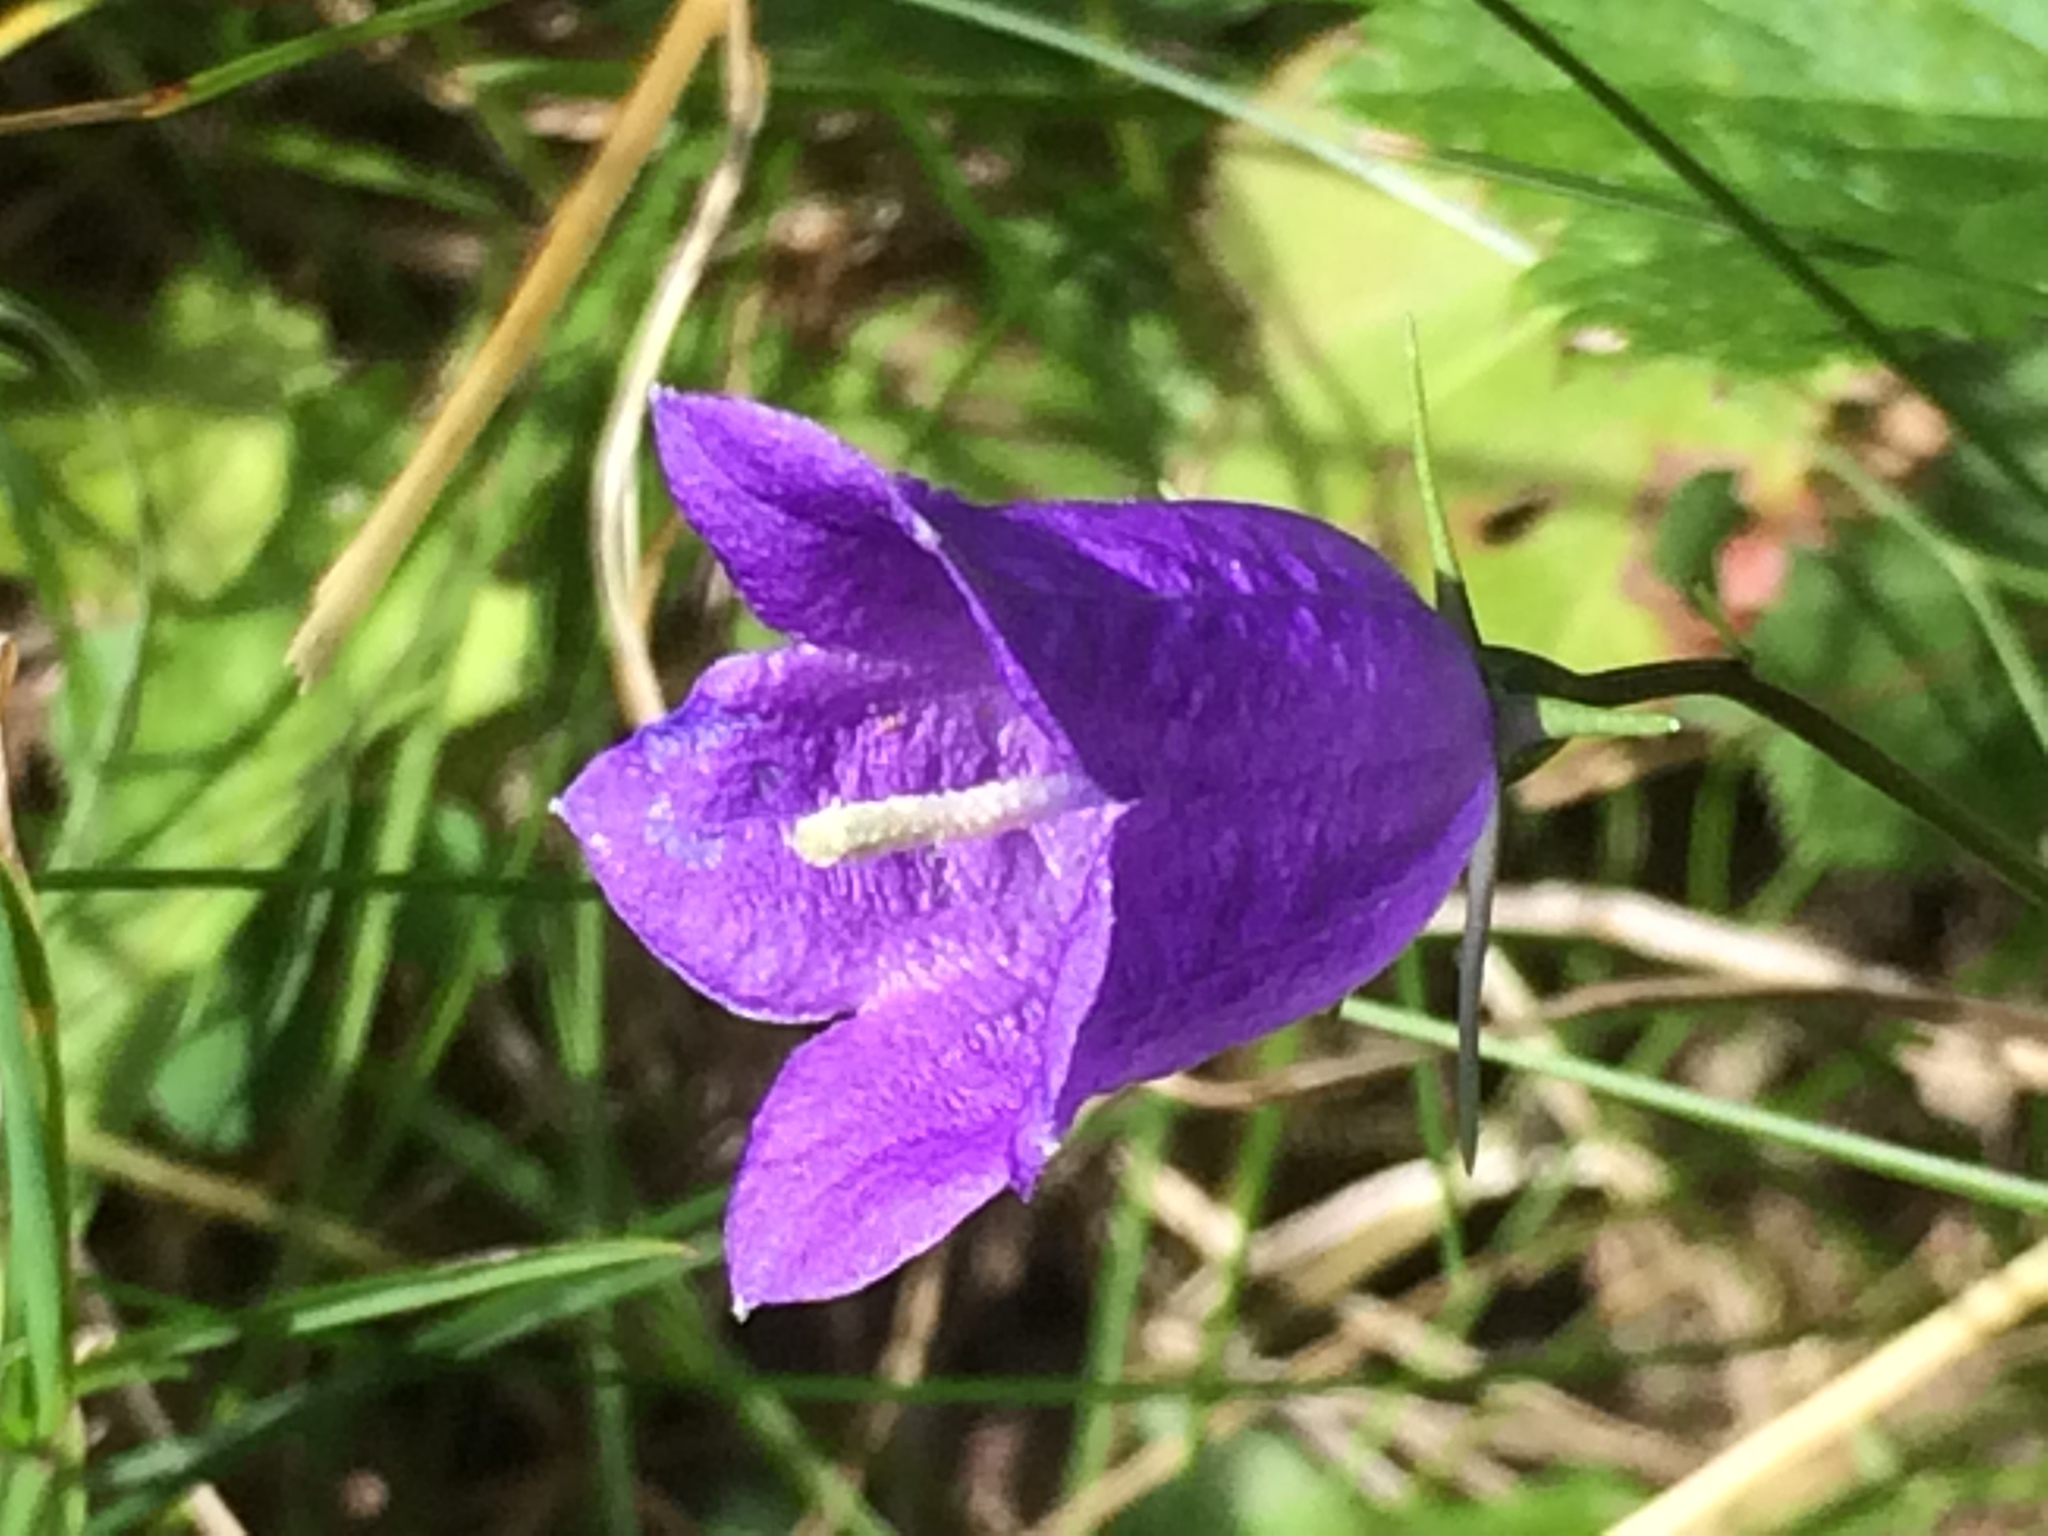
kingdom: Plantae
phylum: Tracheophyta
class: Magnoliopsida
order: Asterales
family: Campanulaceae
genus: Campanula
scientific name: Campanula rotundifolia
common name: Harebell
